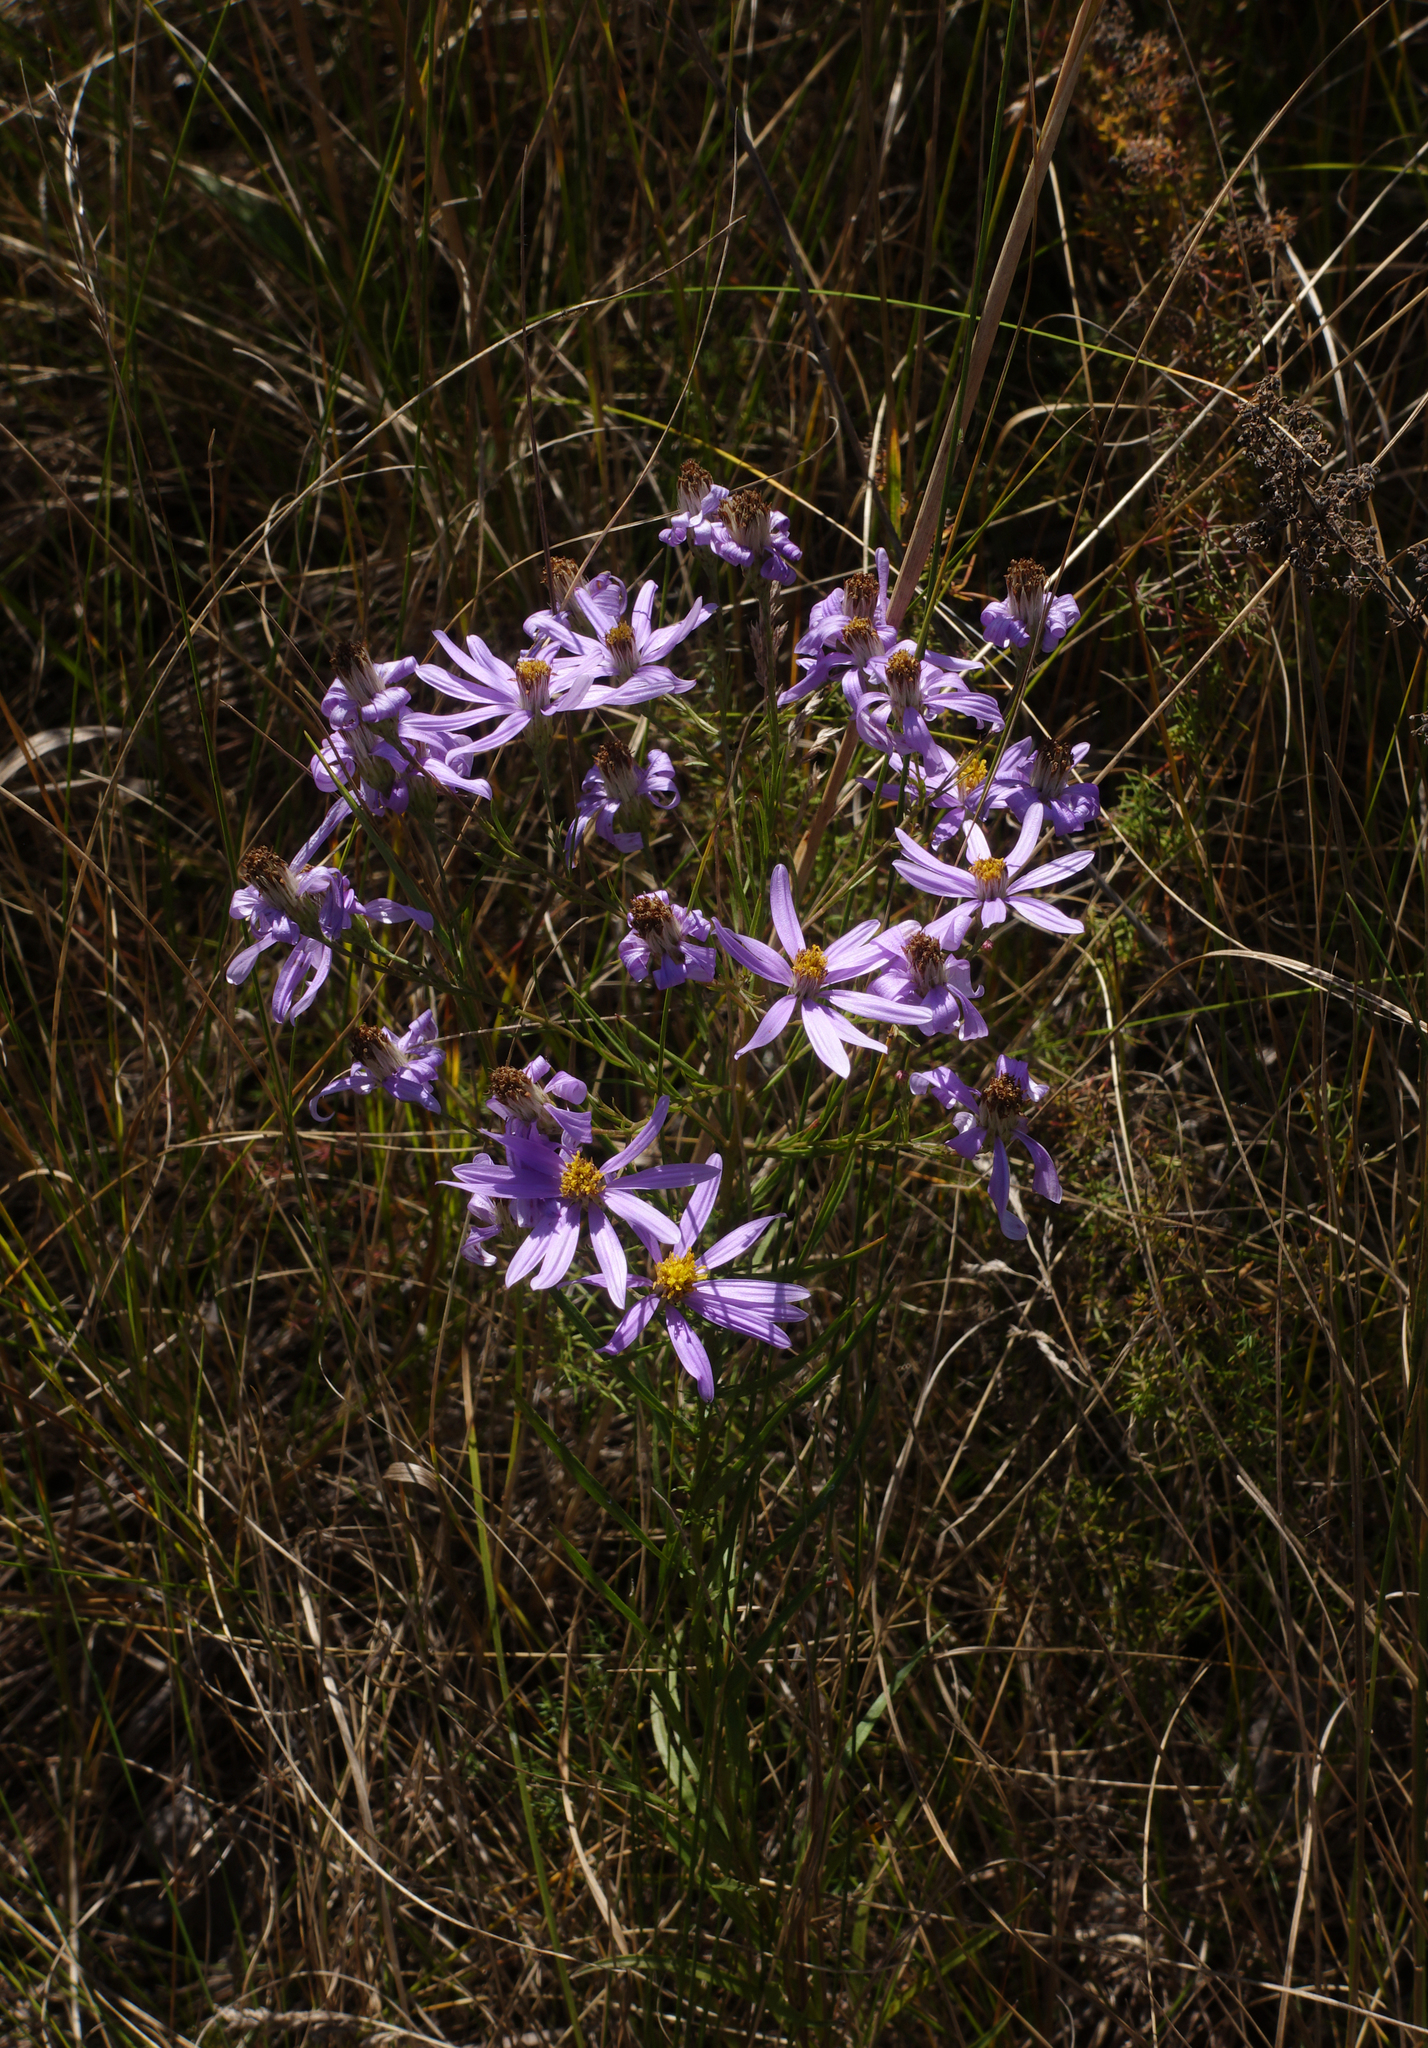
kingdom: Plantae
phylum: Tracheophyta
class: Magnoliopsida
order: Asterales
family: Asteraceae
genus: Galatella
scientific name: Galatella angustissima
